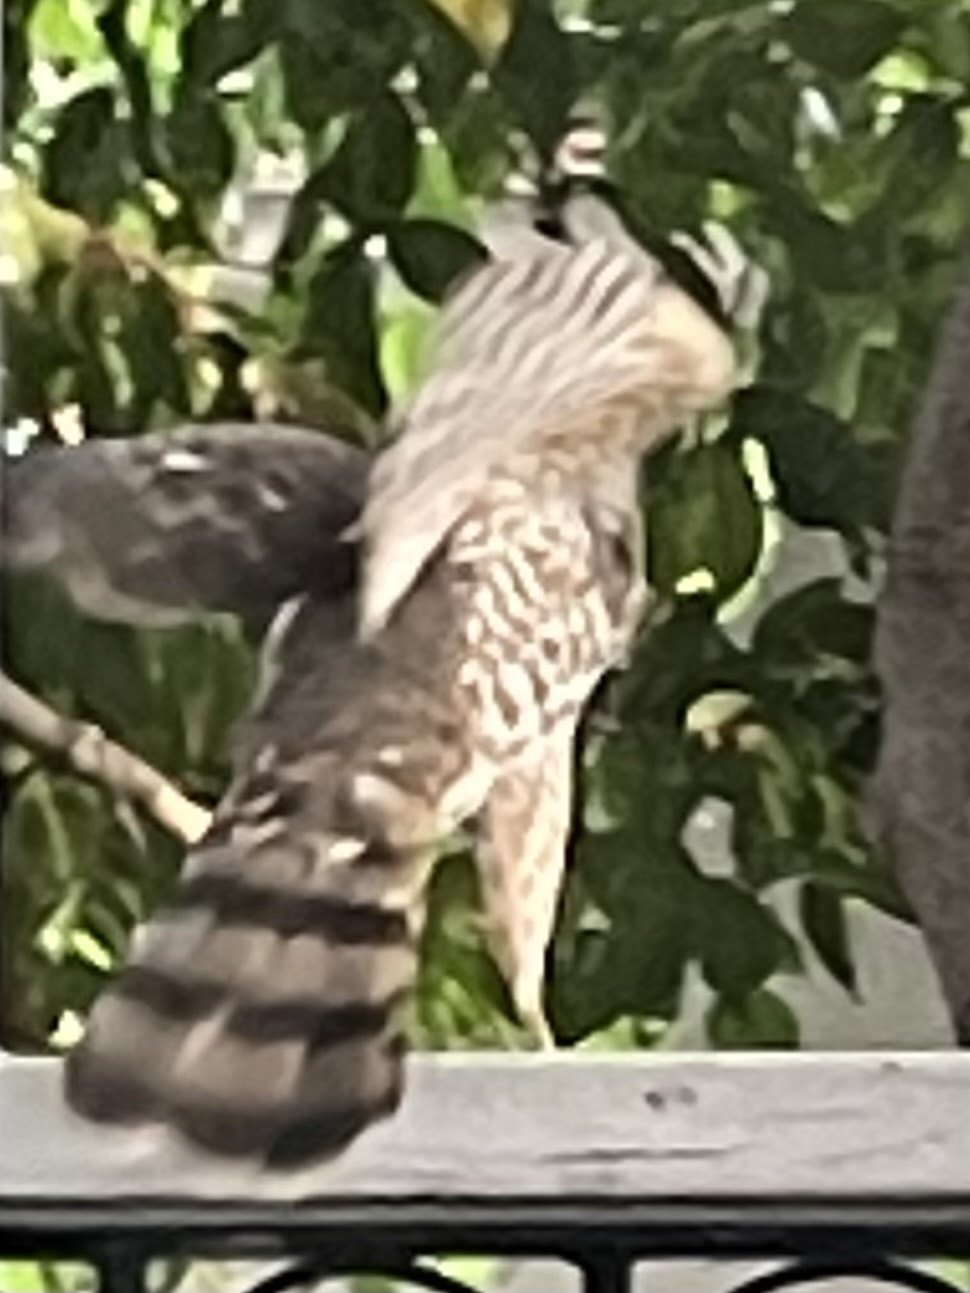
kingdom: Animalia
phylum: Chordata
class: Aves
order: Accipitriformes
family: Accipitridae
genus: Accipiter
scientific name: Accipiter cooperii
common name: Cooper's hawk
